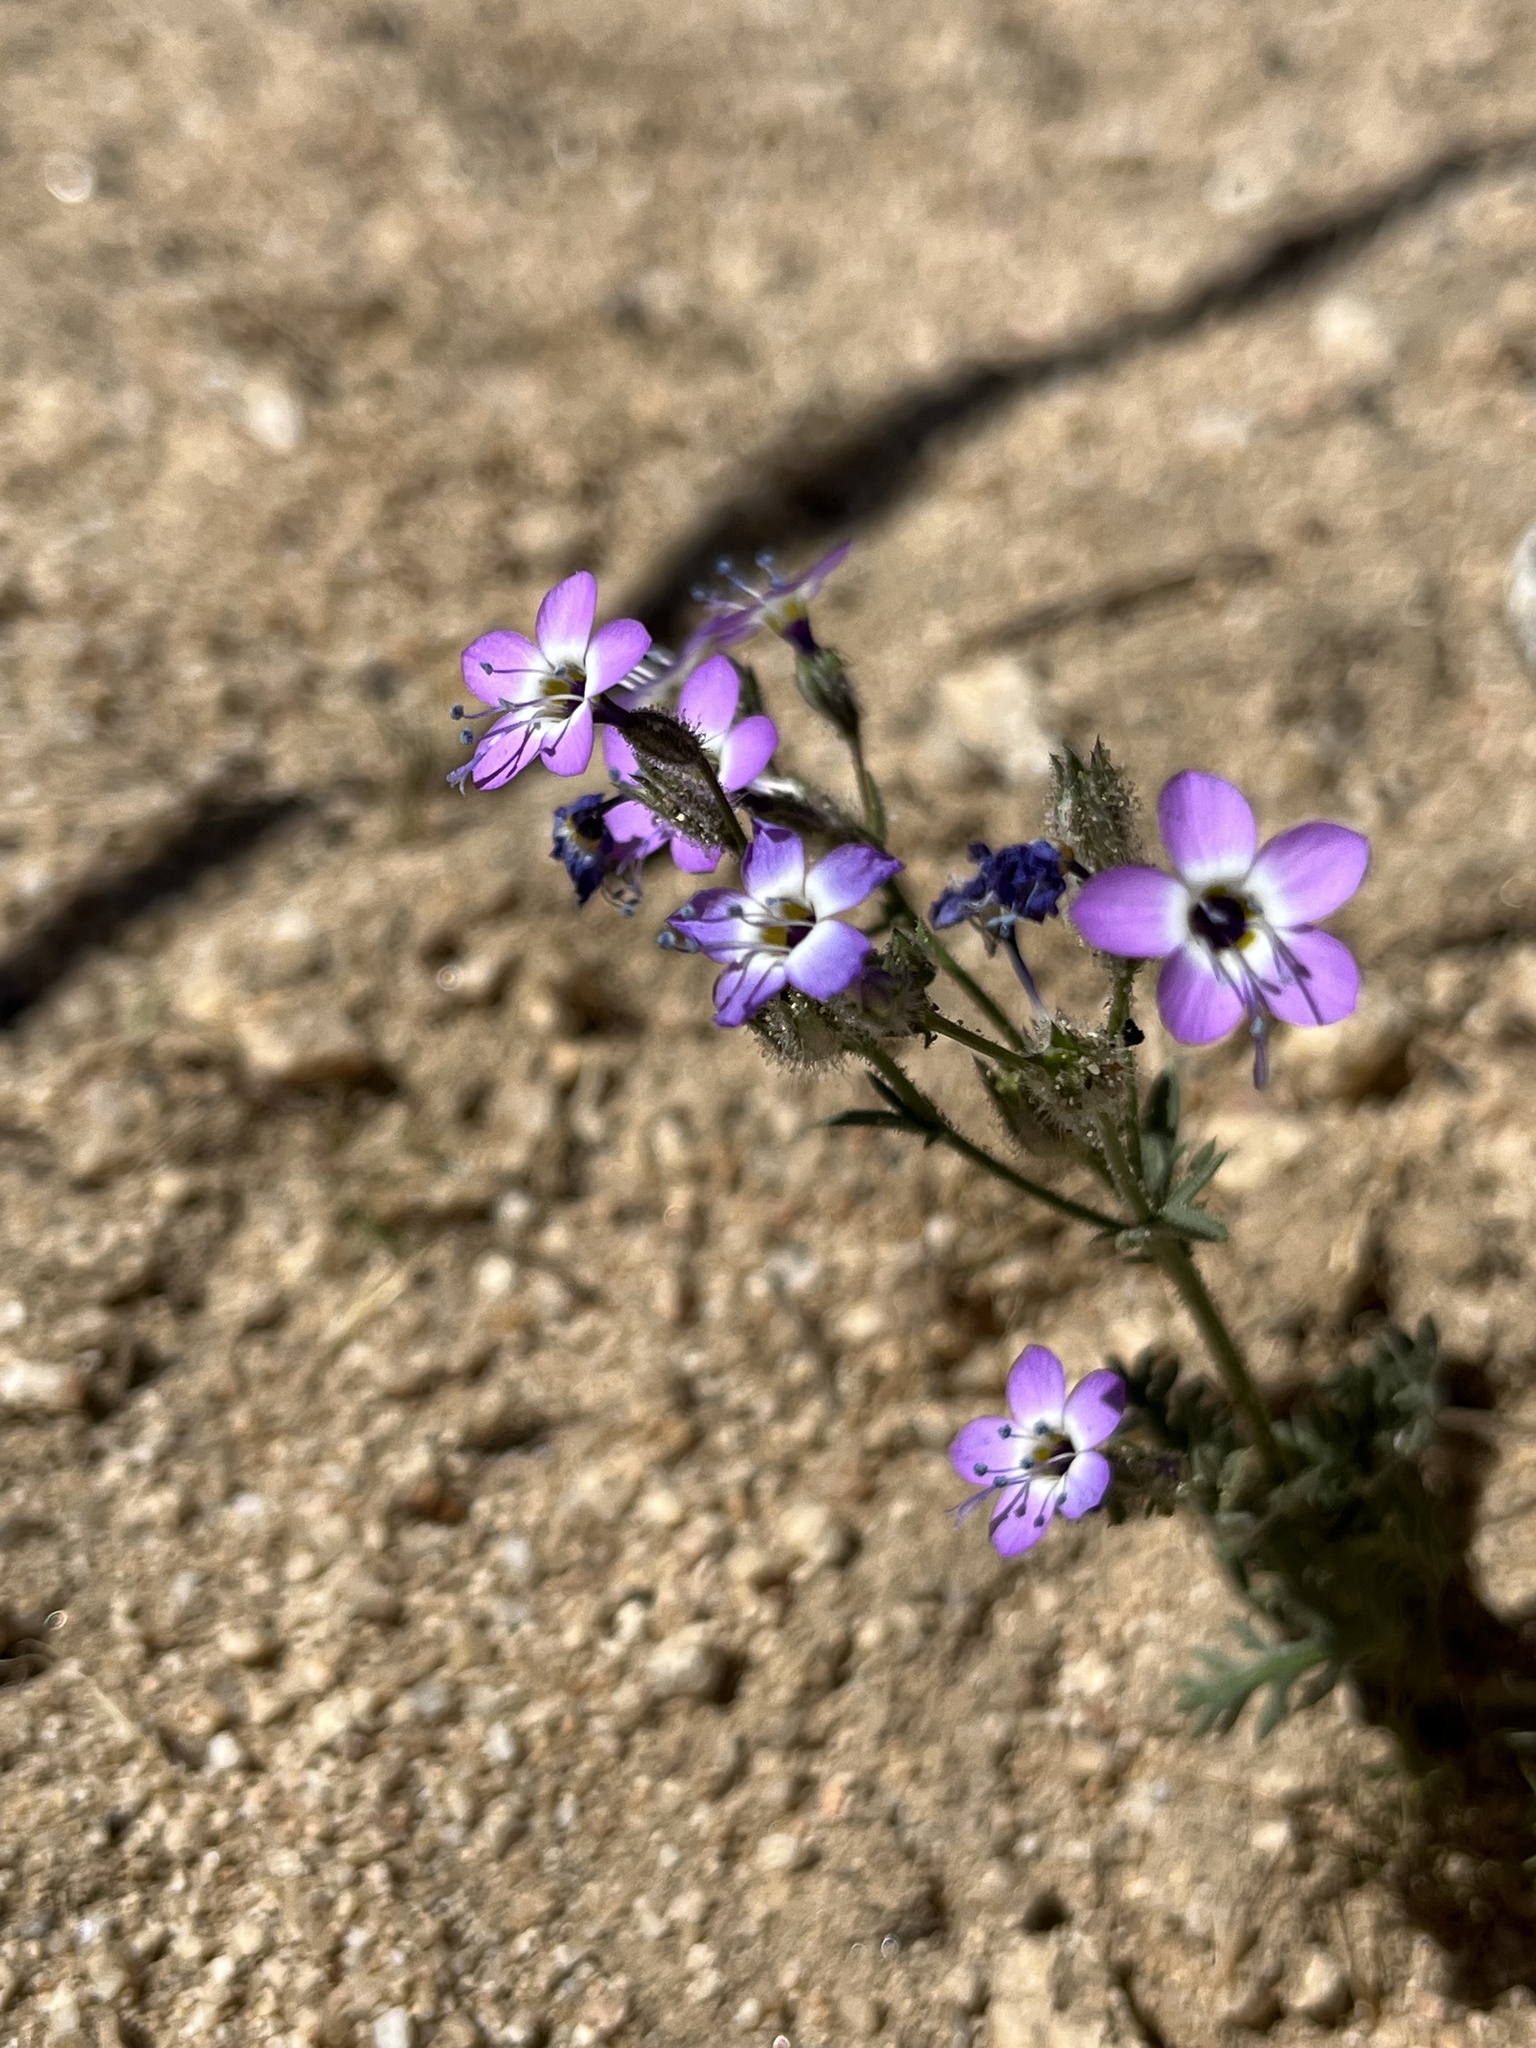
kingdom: Plantae
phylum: Tracheophyta
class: Magnoliopsida
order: Ericales
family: Polemoniaceae
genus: Gilia
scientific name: Gilia brecciarum
